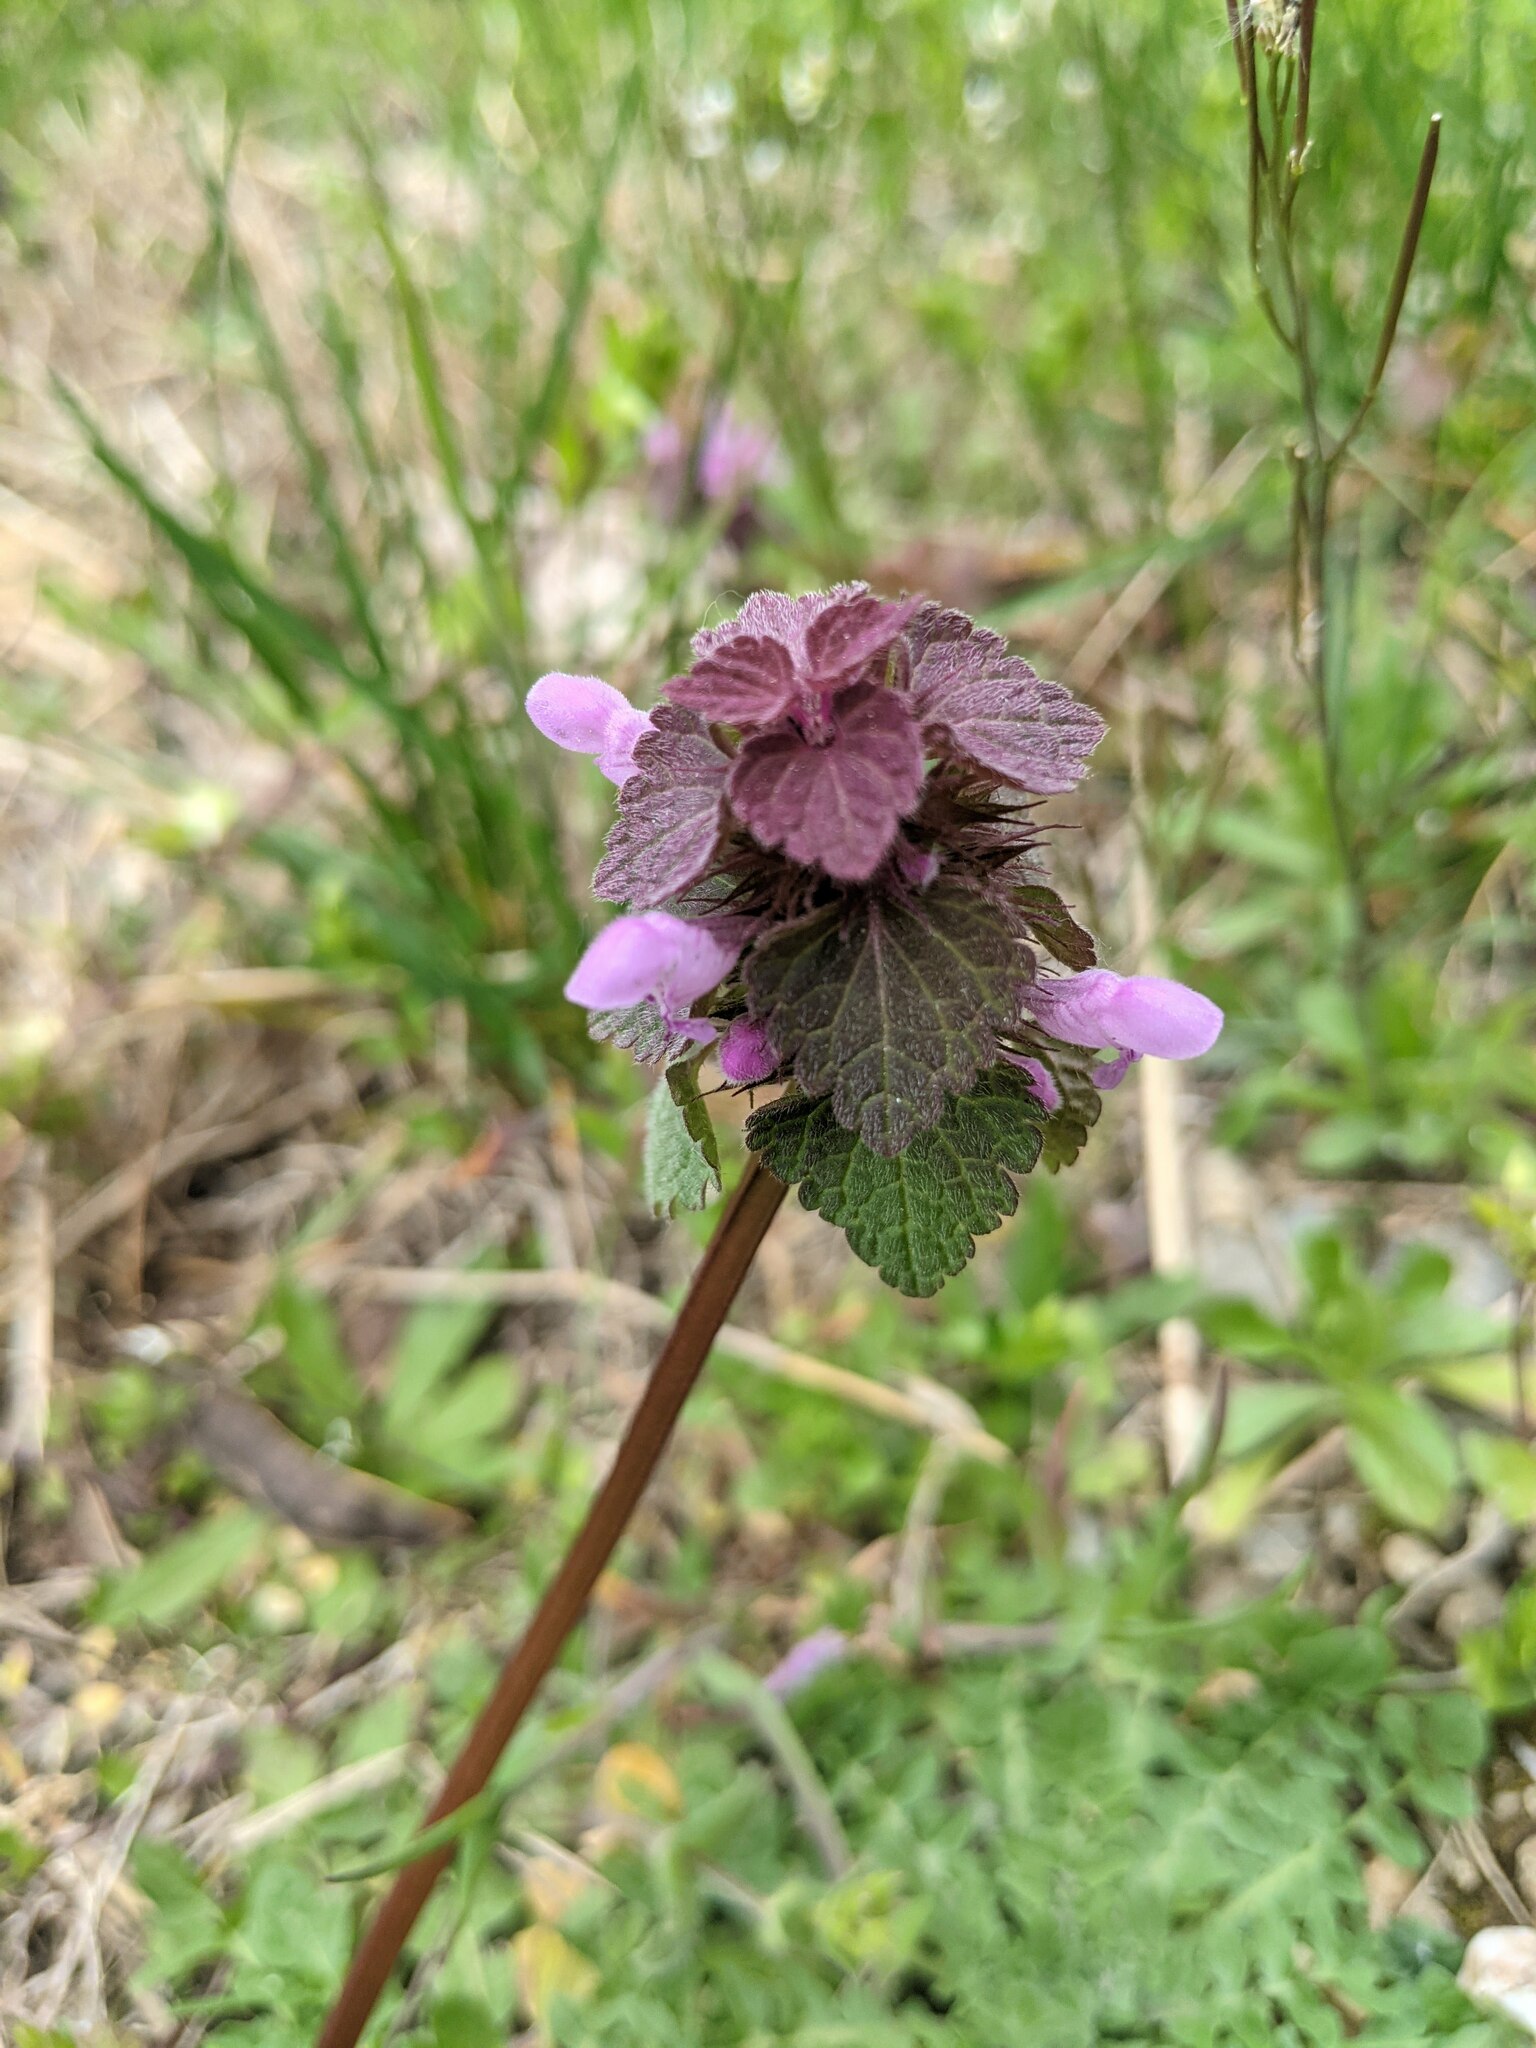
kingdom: Plantae
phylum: Tracheophyta
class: Magnoliopsida
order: Lamiales
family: Lamiaceae
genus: Lamium
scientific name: Lamium purpureum
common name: Red dead-nettle
